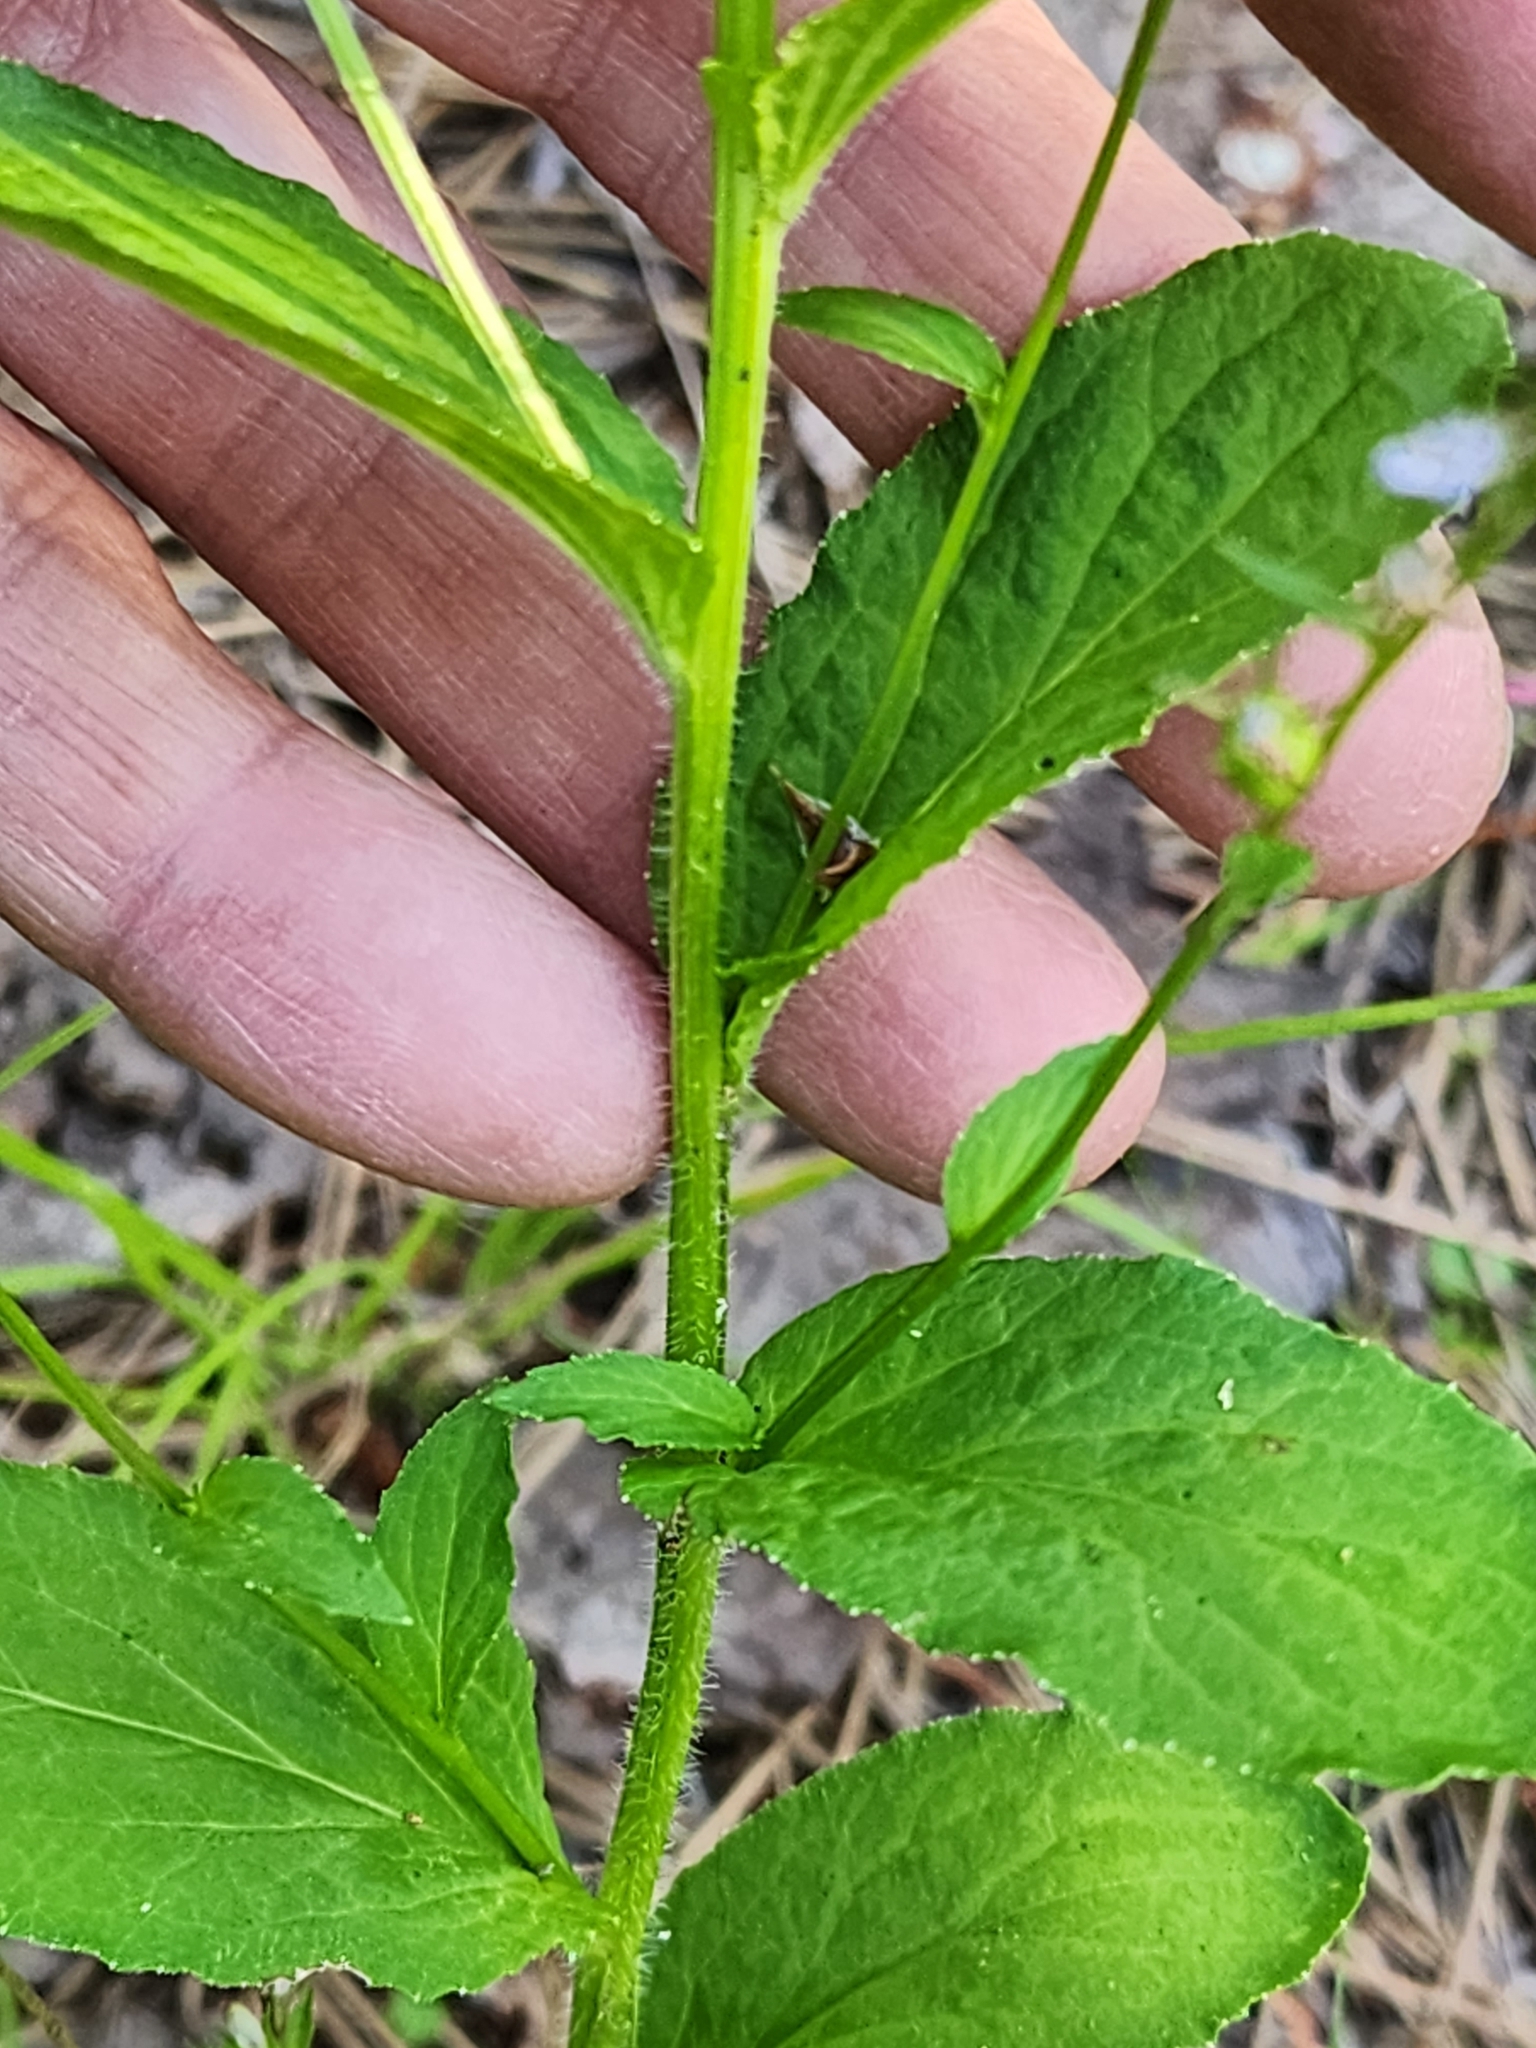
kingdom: Plantae
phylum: Tracheophyta
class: Magnoliopsida
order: Asterales
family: Campanulaceae
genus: Lobelia
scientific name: Lobelia inflata
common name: Indian tobacco
